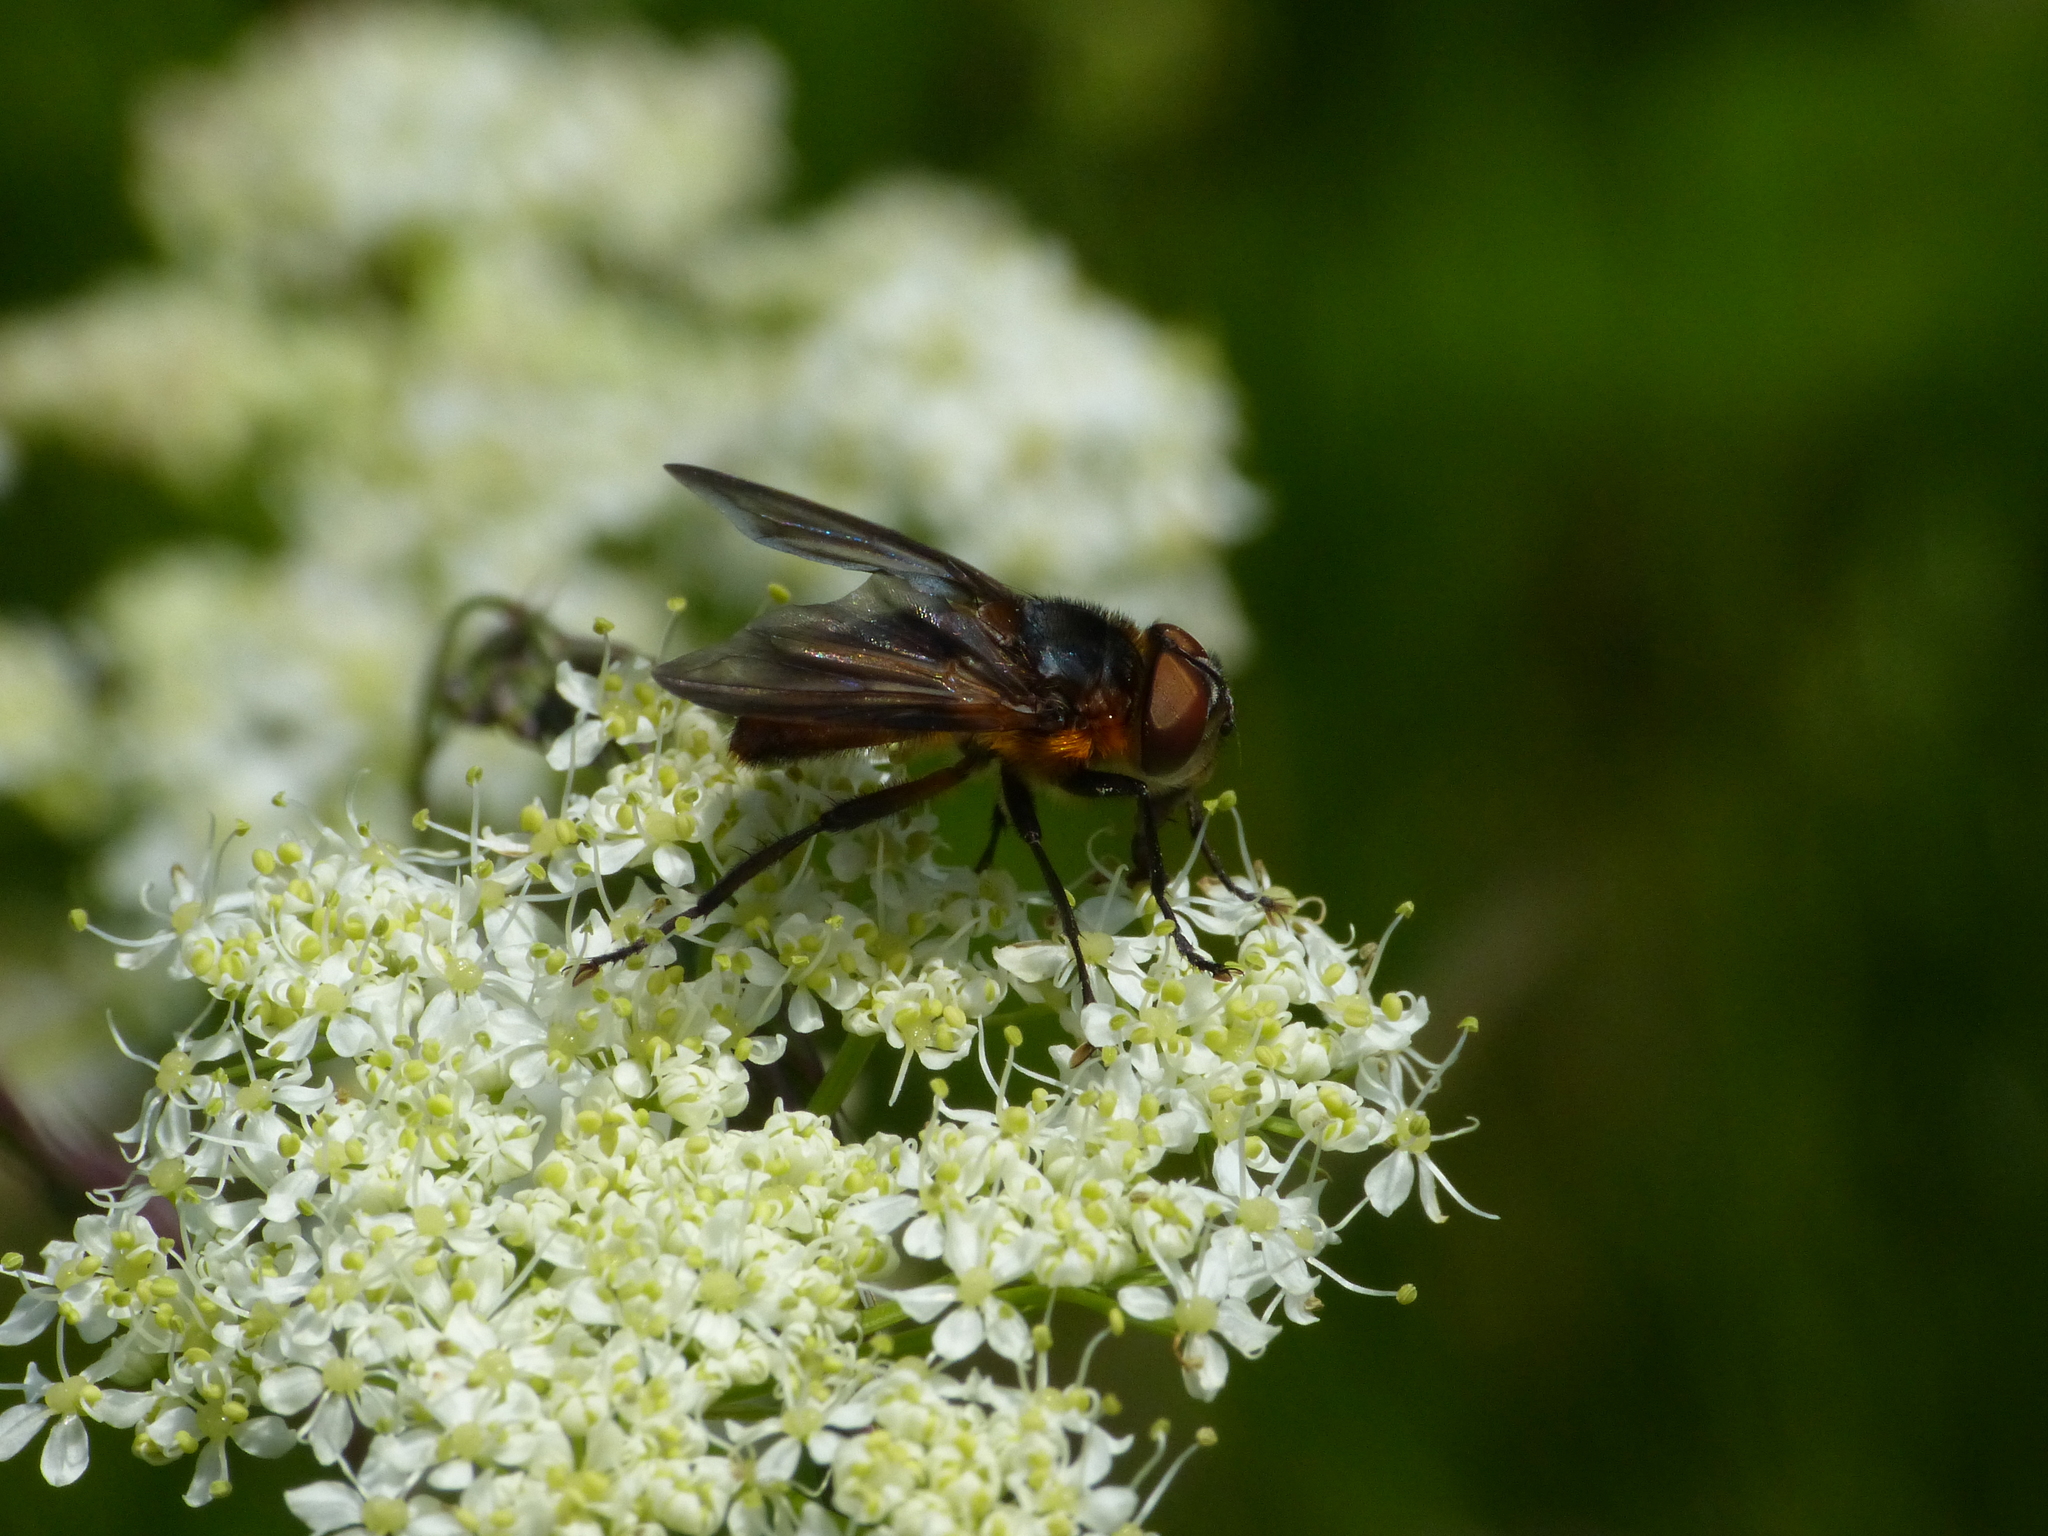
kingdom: Animalia
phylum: Arthropoda
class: Insecta
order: Diptera
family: Tachinidae
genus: Phasia
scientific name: Phasia hemiptera
